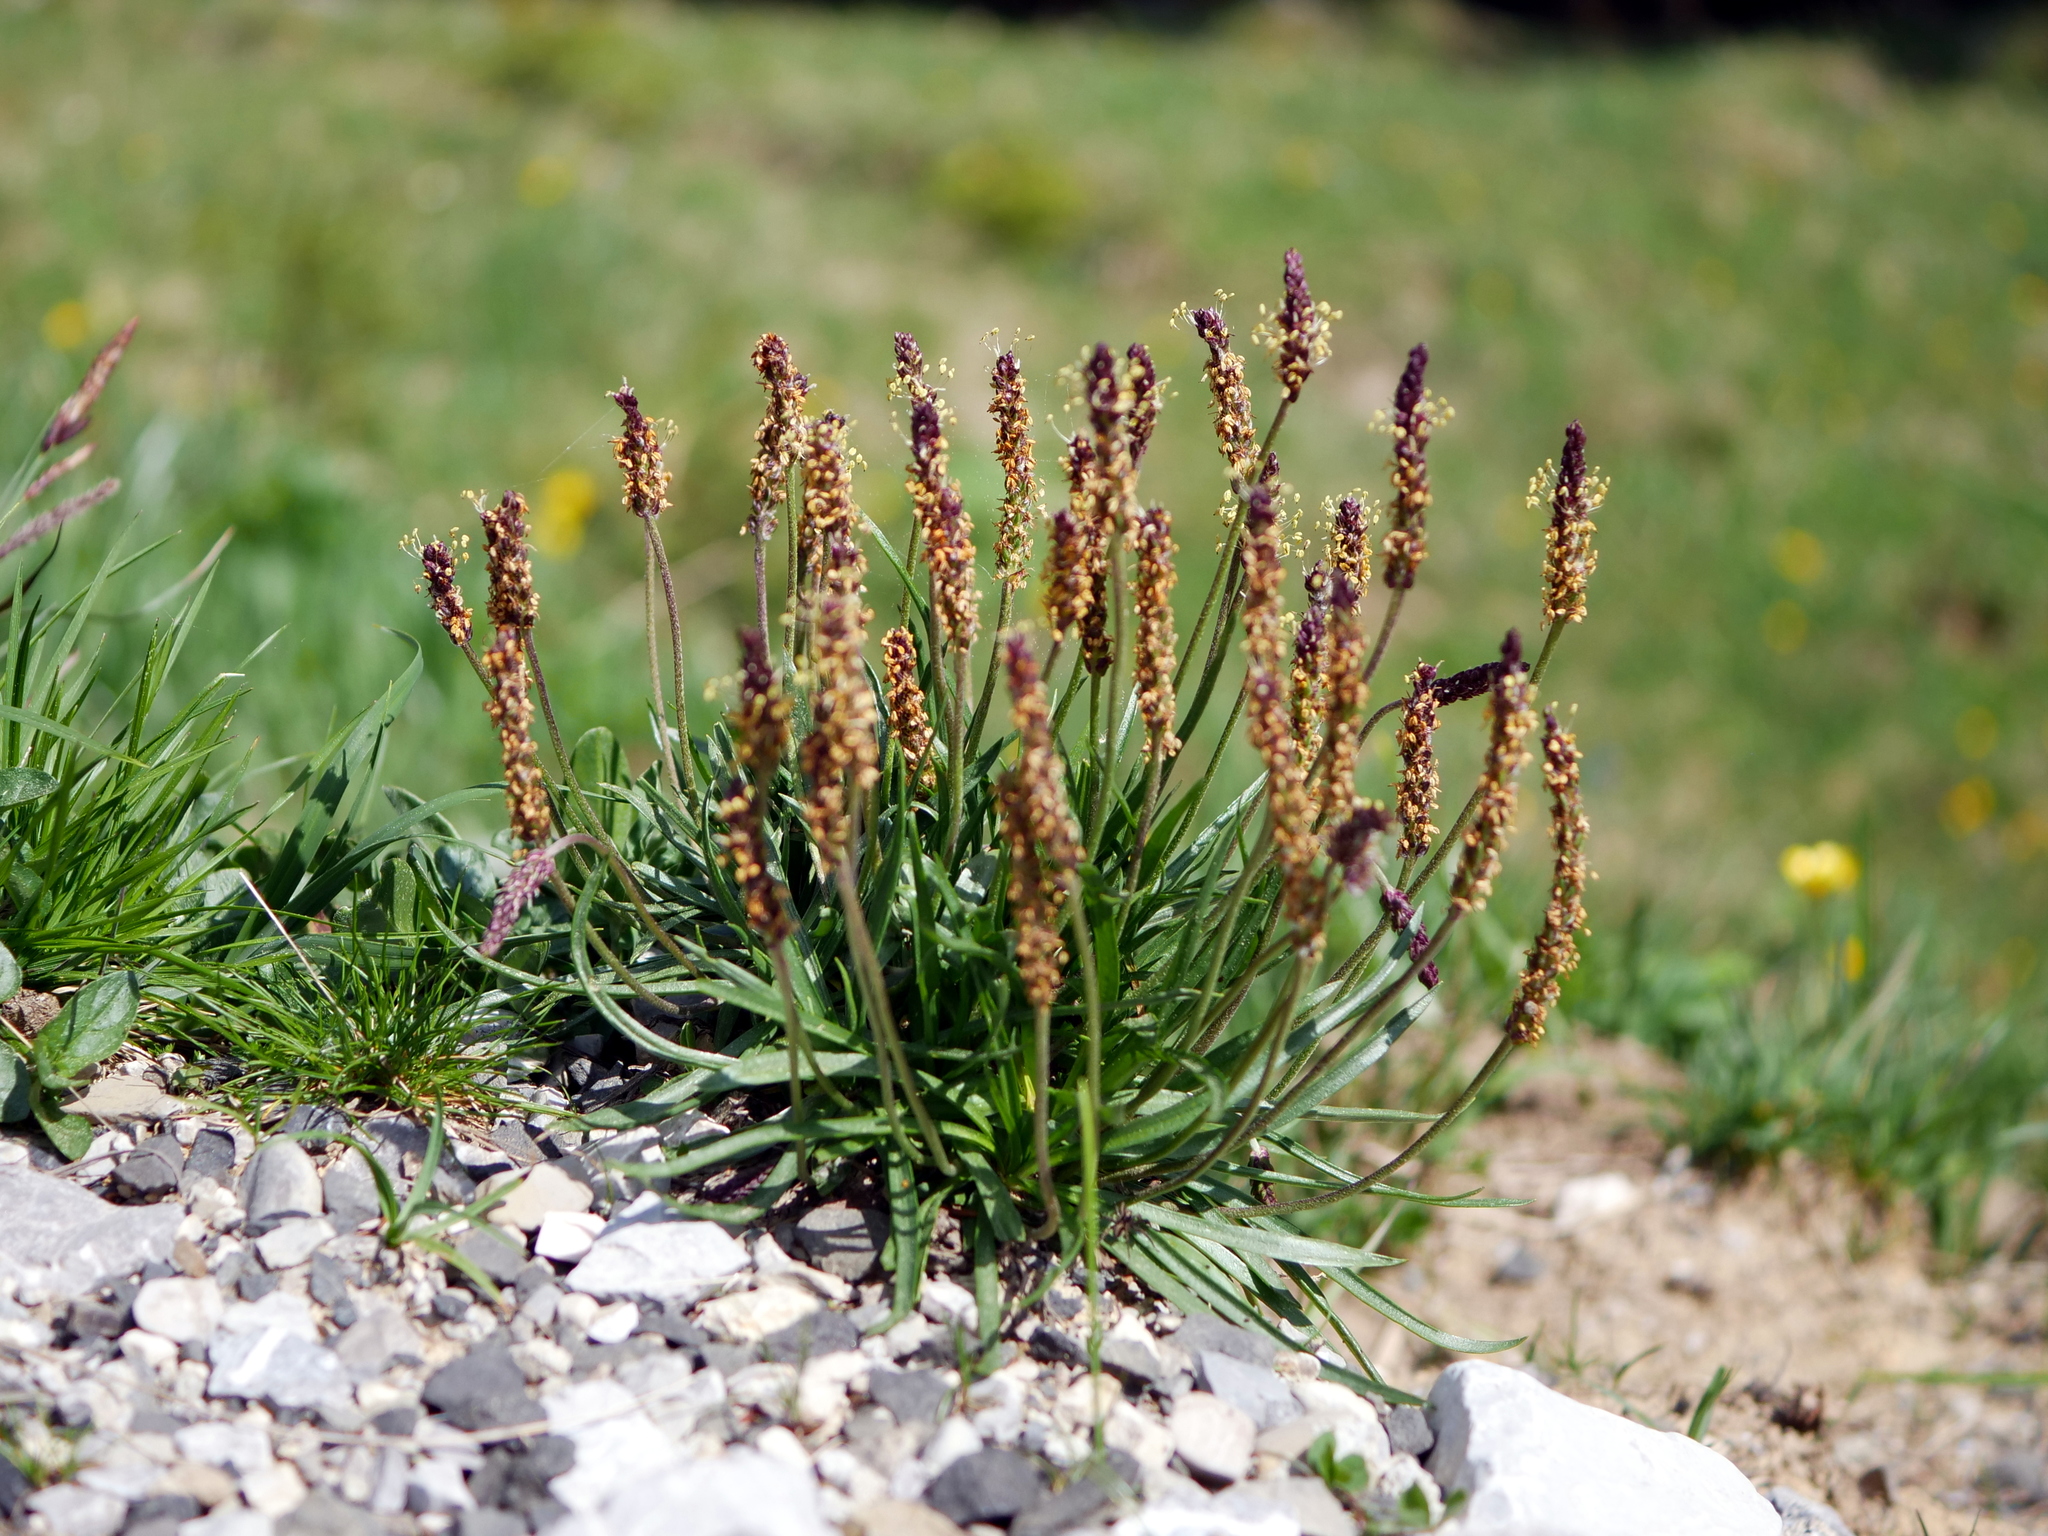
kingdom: Plantae
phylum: Tracheophyta
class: Magnoliopsida
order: Lamiales
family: Plantaginaceae
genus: Plantago
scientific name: Plantago alpina
